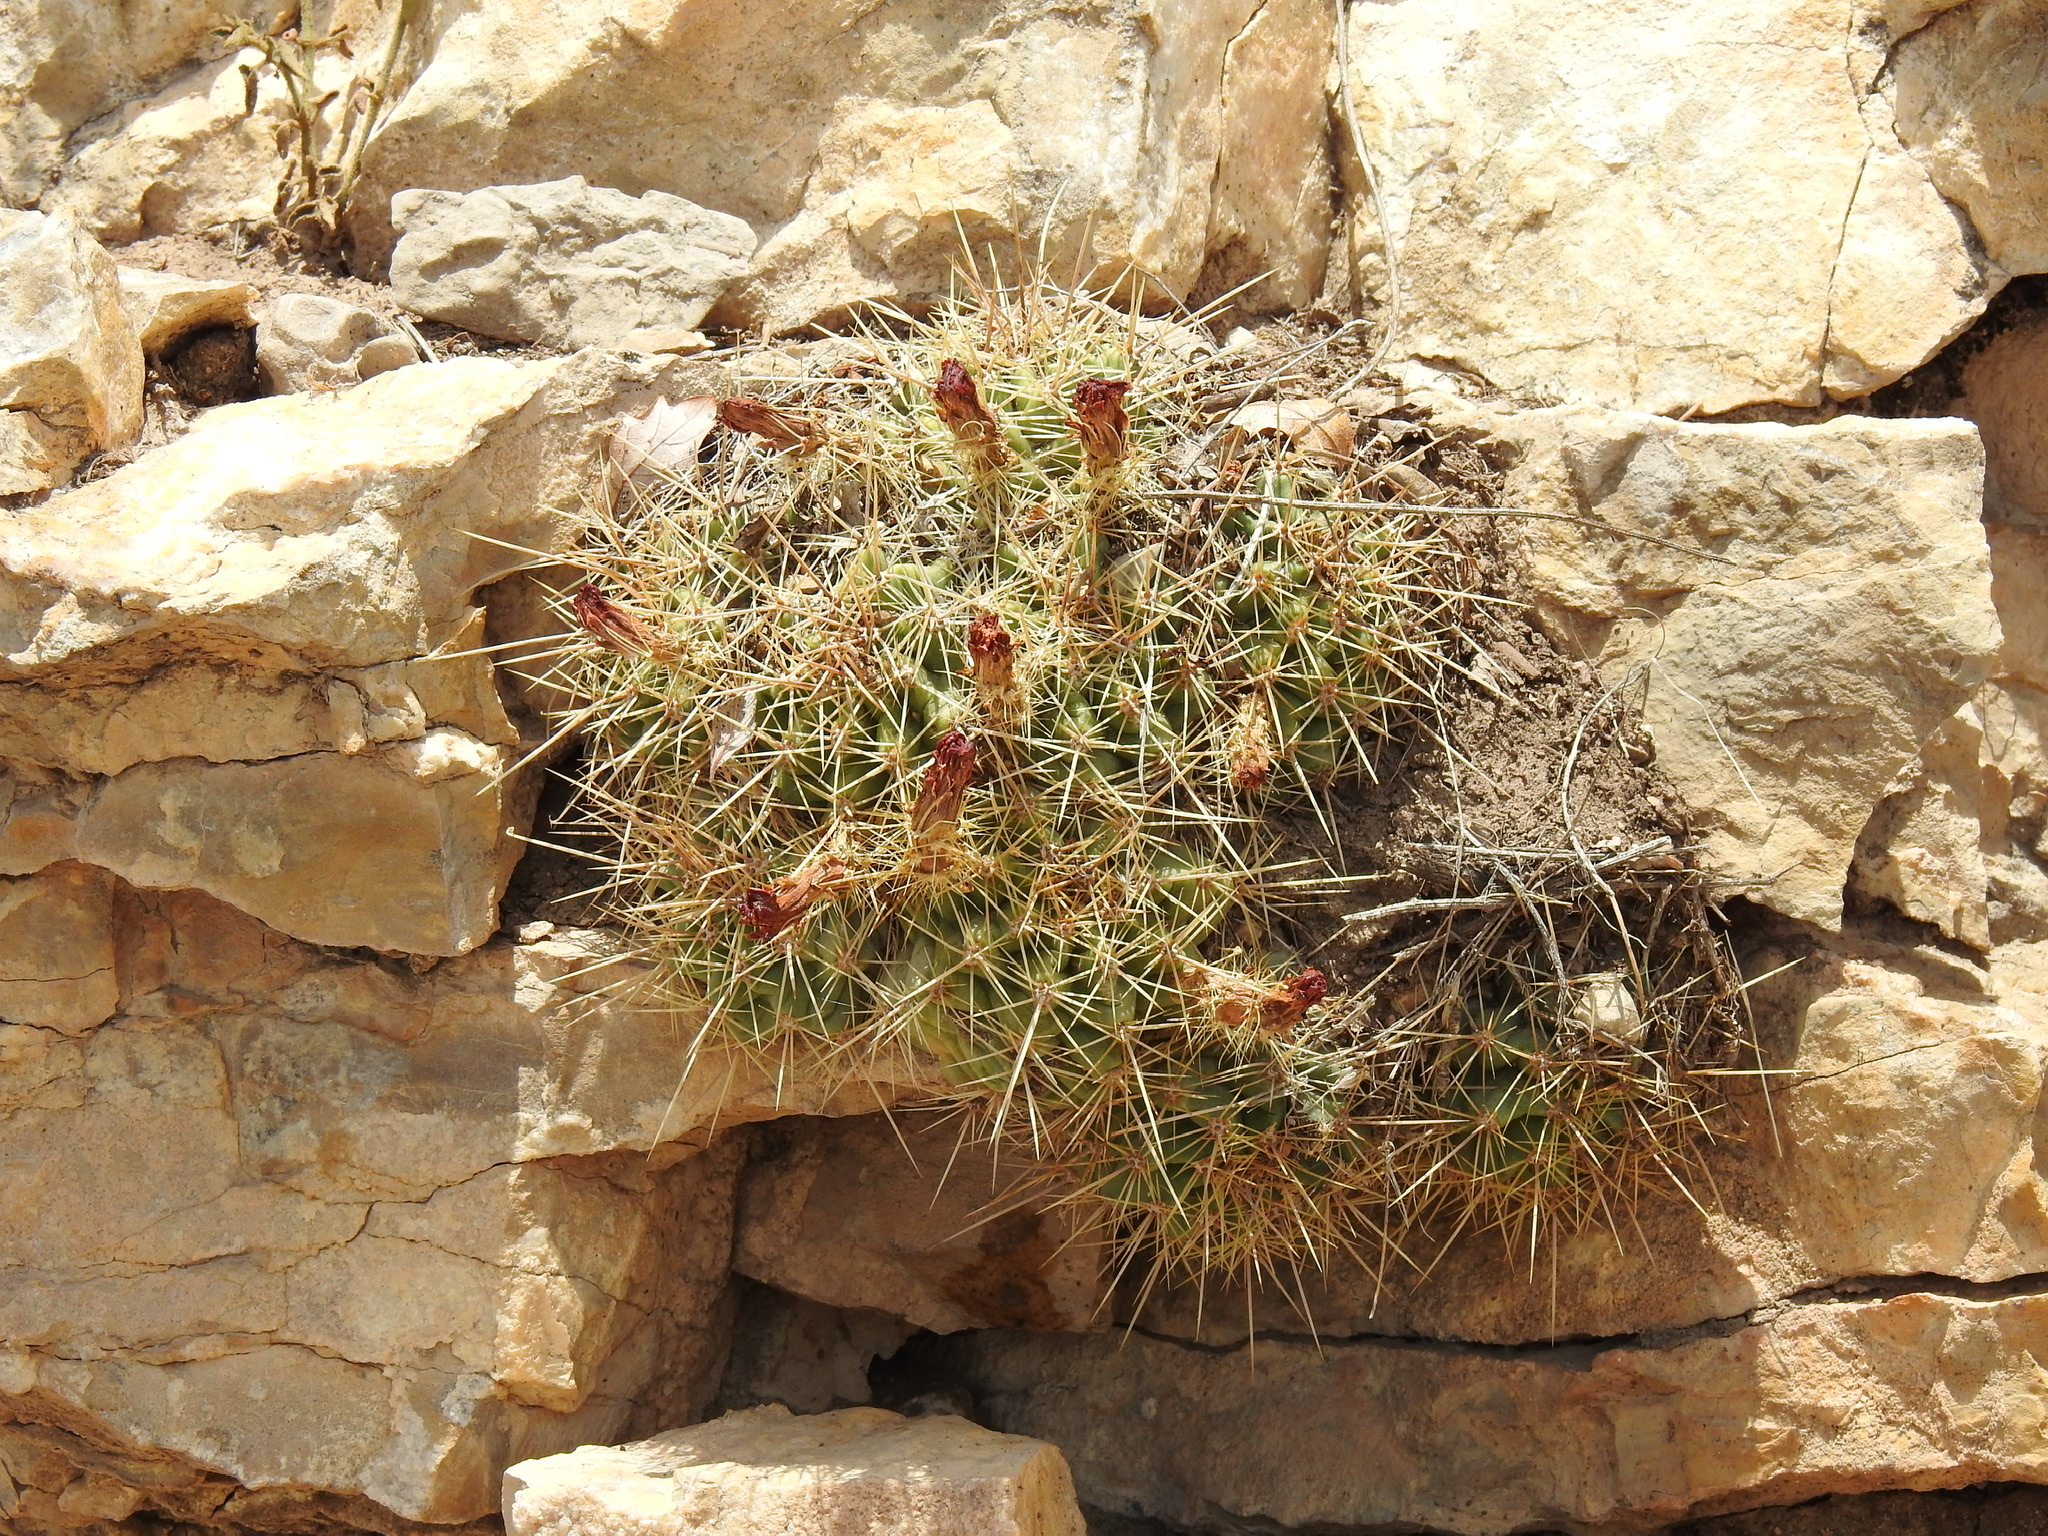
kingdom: Plantae
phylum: Tracheophyta
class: Magnoliopsida
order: Caryophyllales
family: Cactaceae
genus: Echinocereus
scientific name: Echinocereus coccineus
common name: Scarlet hedgehog cactus
